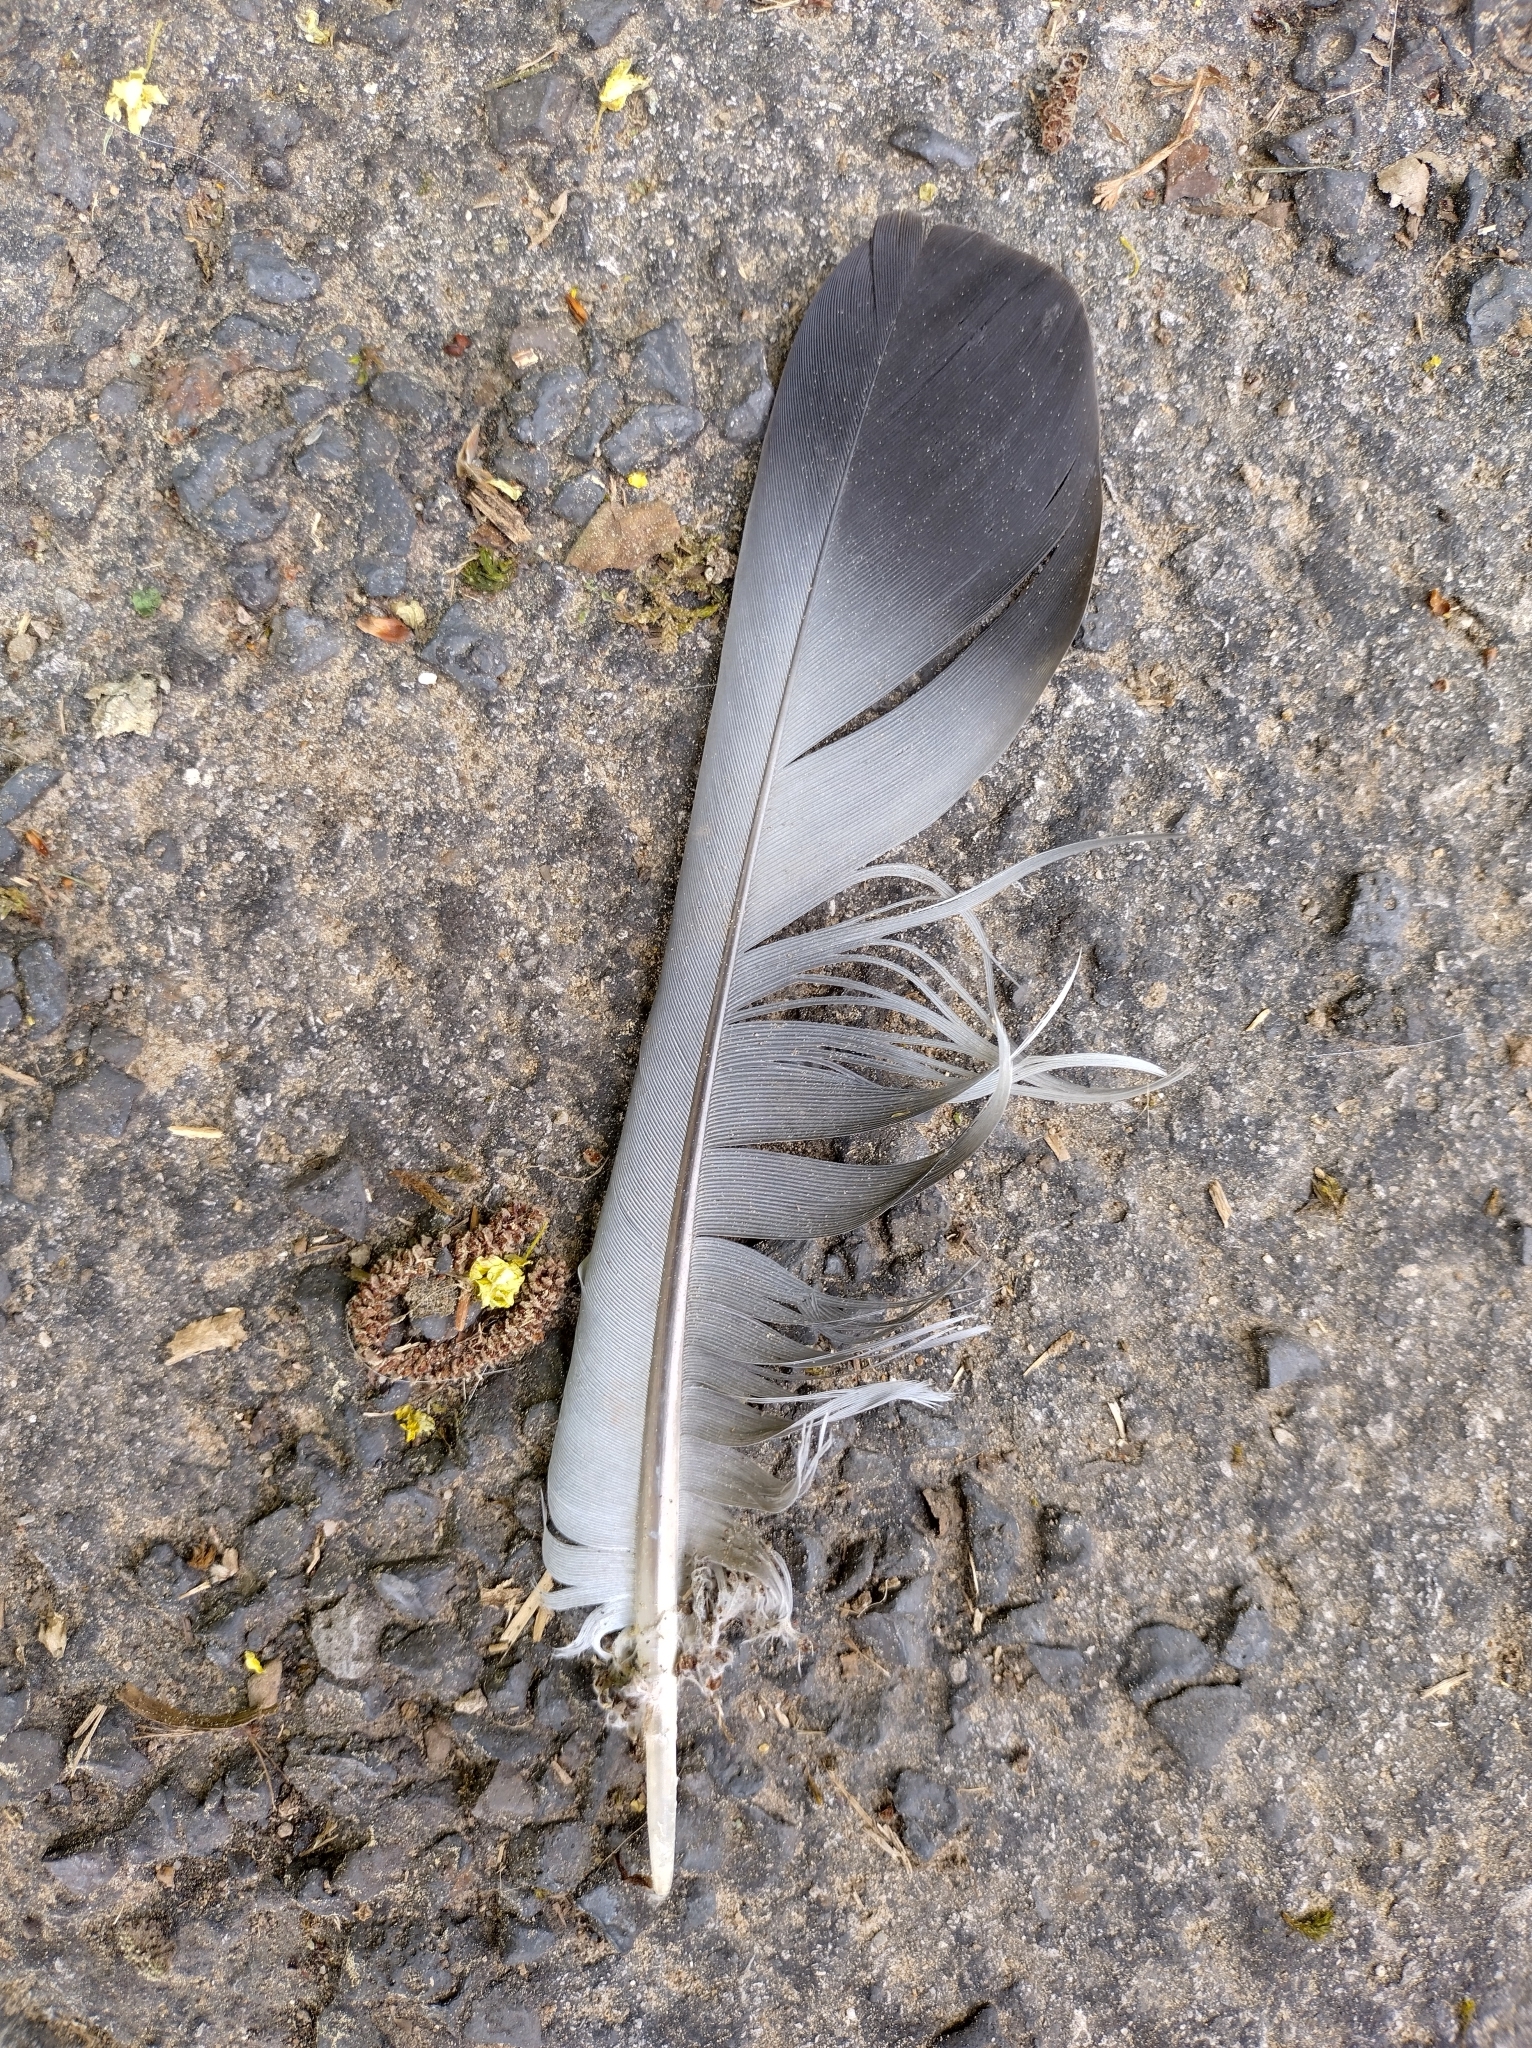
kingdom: Animalia
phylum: Chordata
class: Aves
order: Columbiformes
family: Columbidae
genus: Columba
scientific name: Columba palumbus
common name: Common wood pigeon
